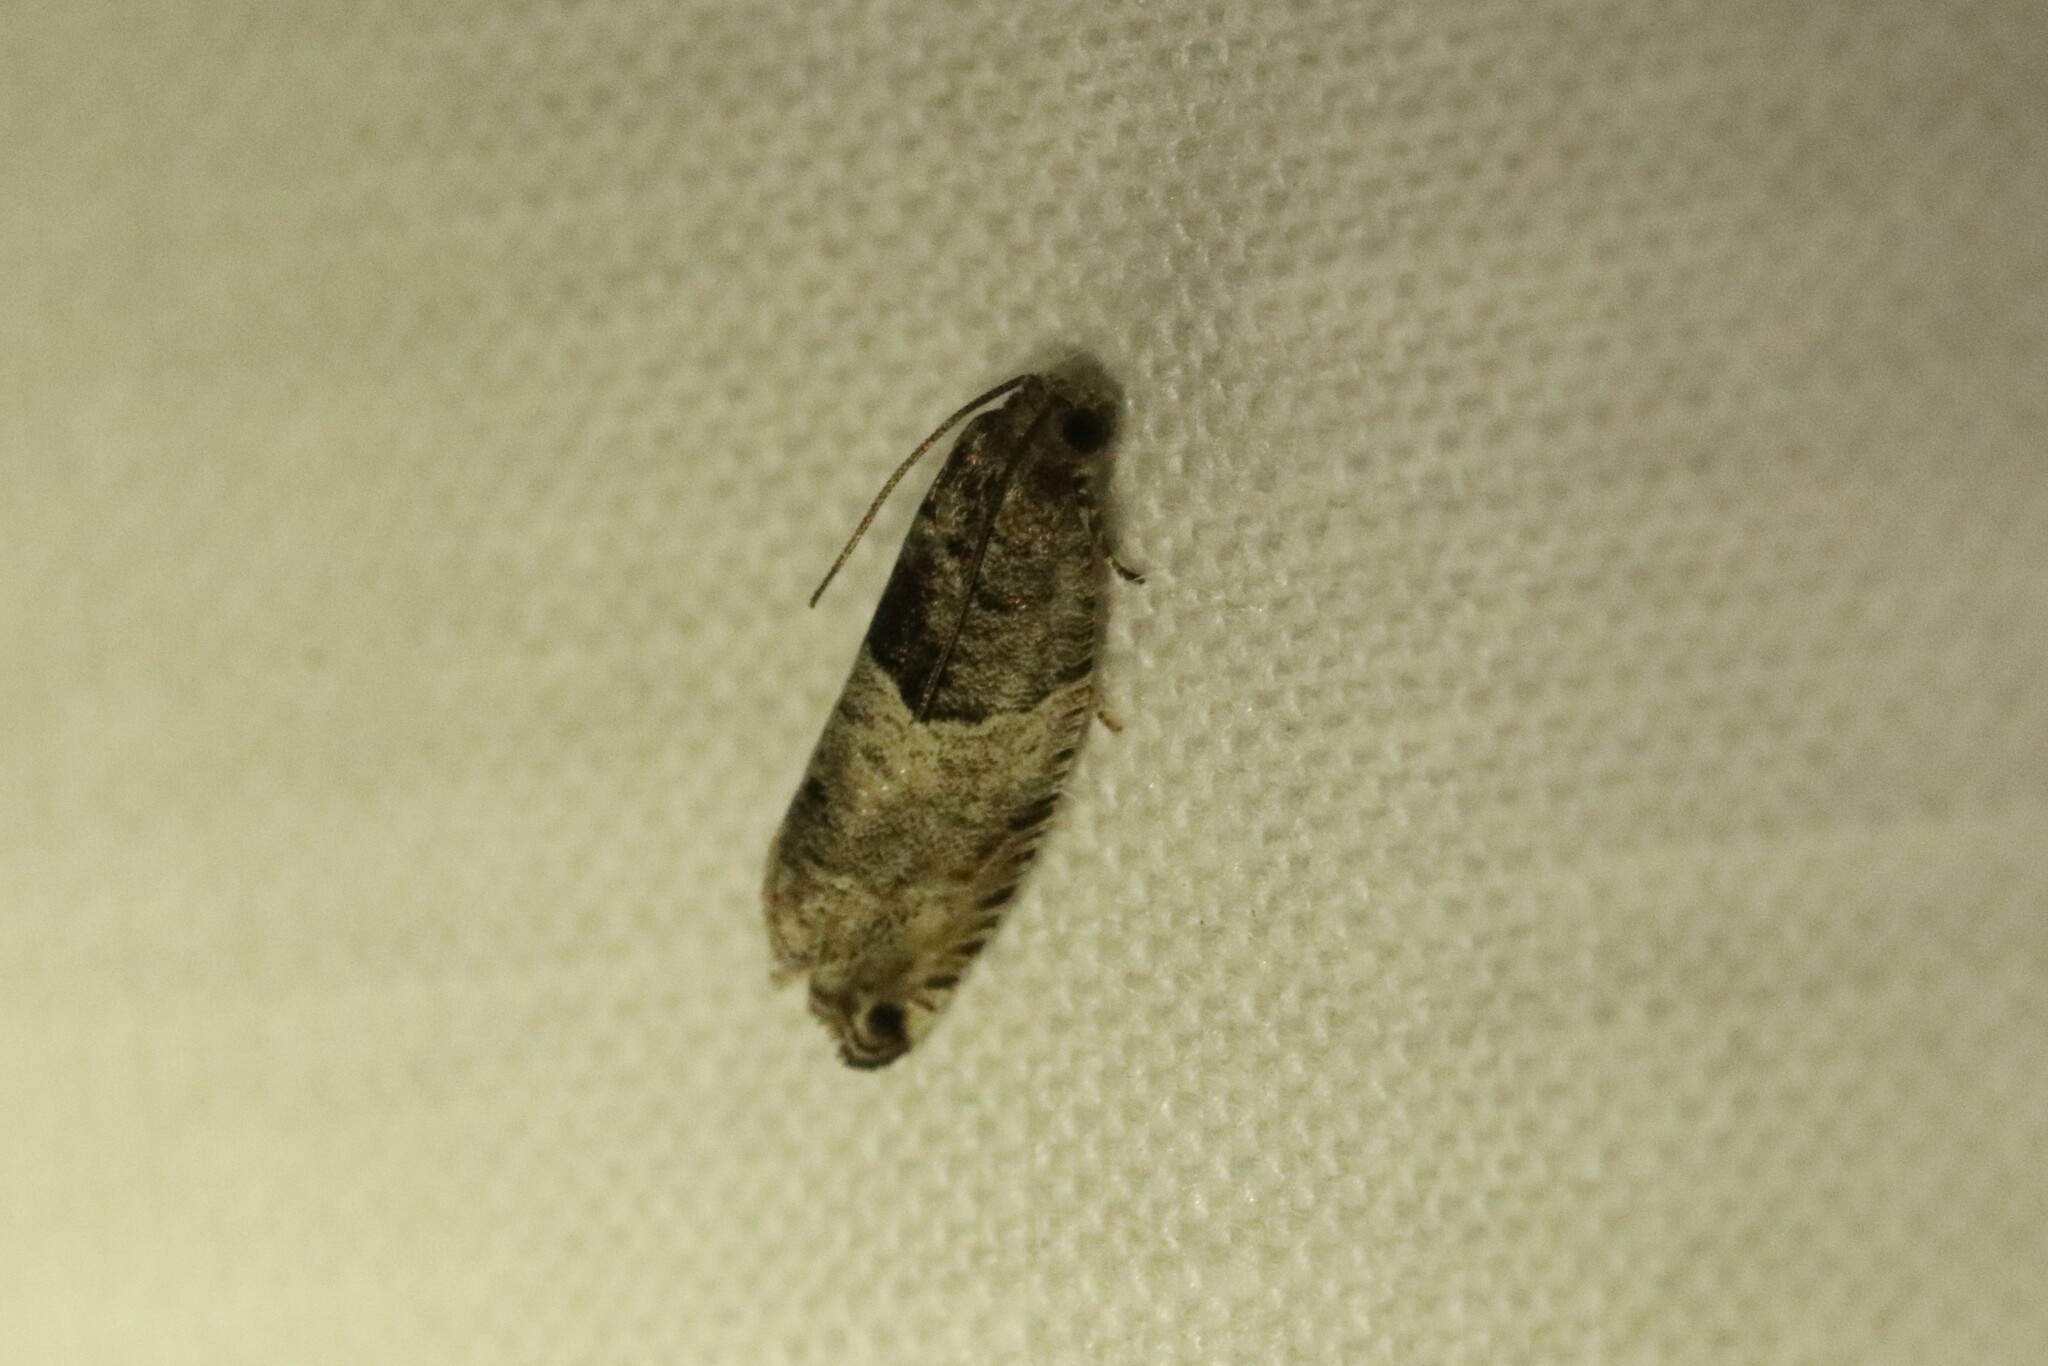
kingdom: Animalia
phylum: Arthropoda
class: Insecta
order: Lepidoptera
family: Tortricidae
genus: Spilonota
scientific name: Spilonota ocellana
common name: Bud moth
